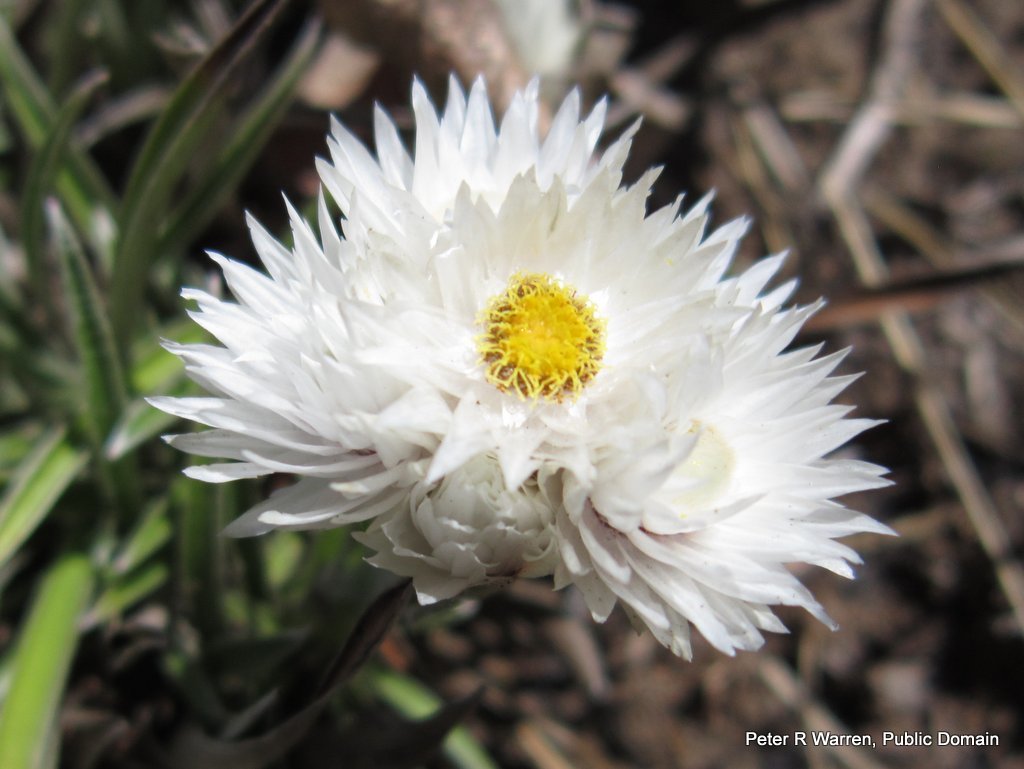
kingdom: Plantae
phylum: Tracheophyta
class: Magnoliopsida
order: Asterales
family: Asteraceae
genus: Helichrysum
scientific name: Helichrysum grandibracteatum
